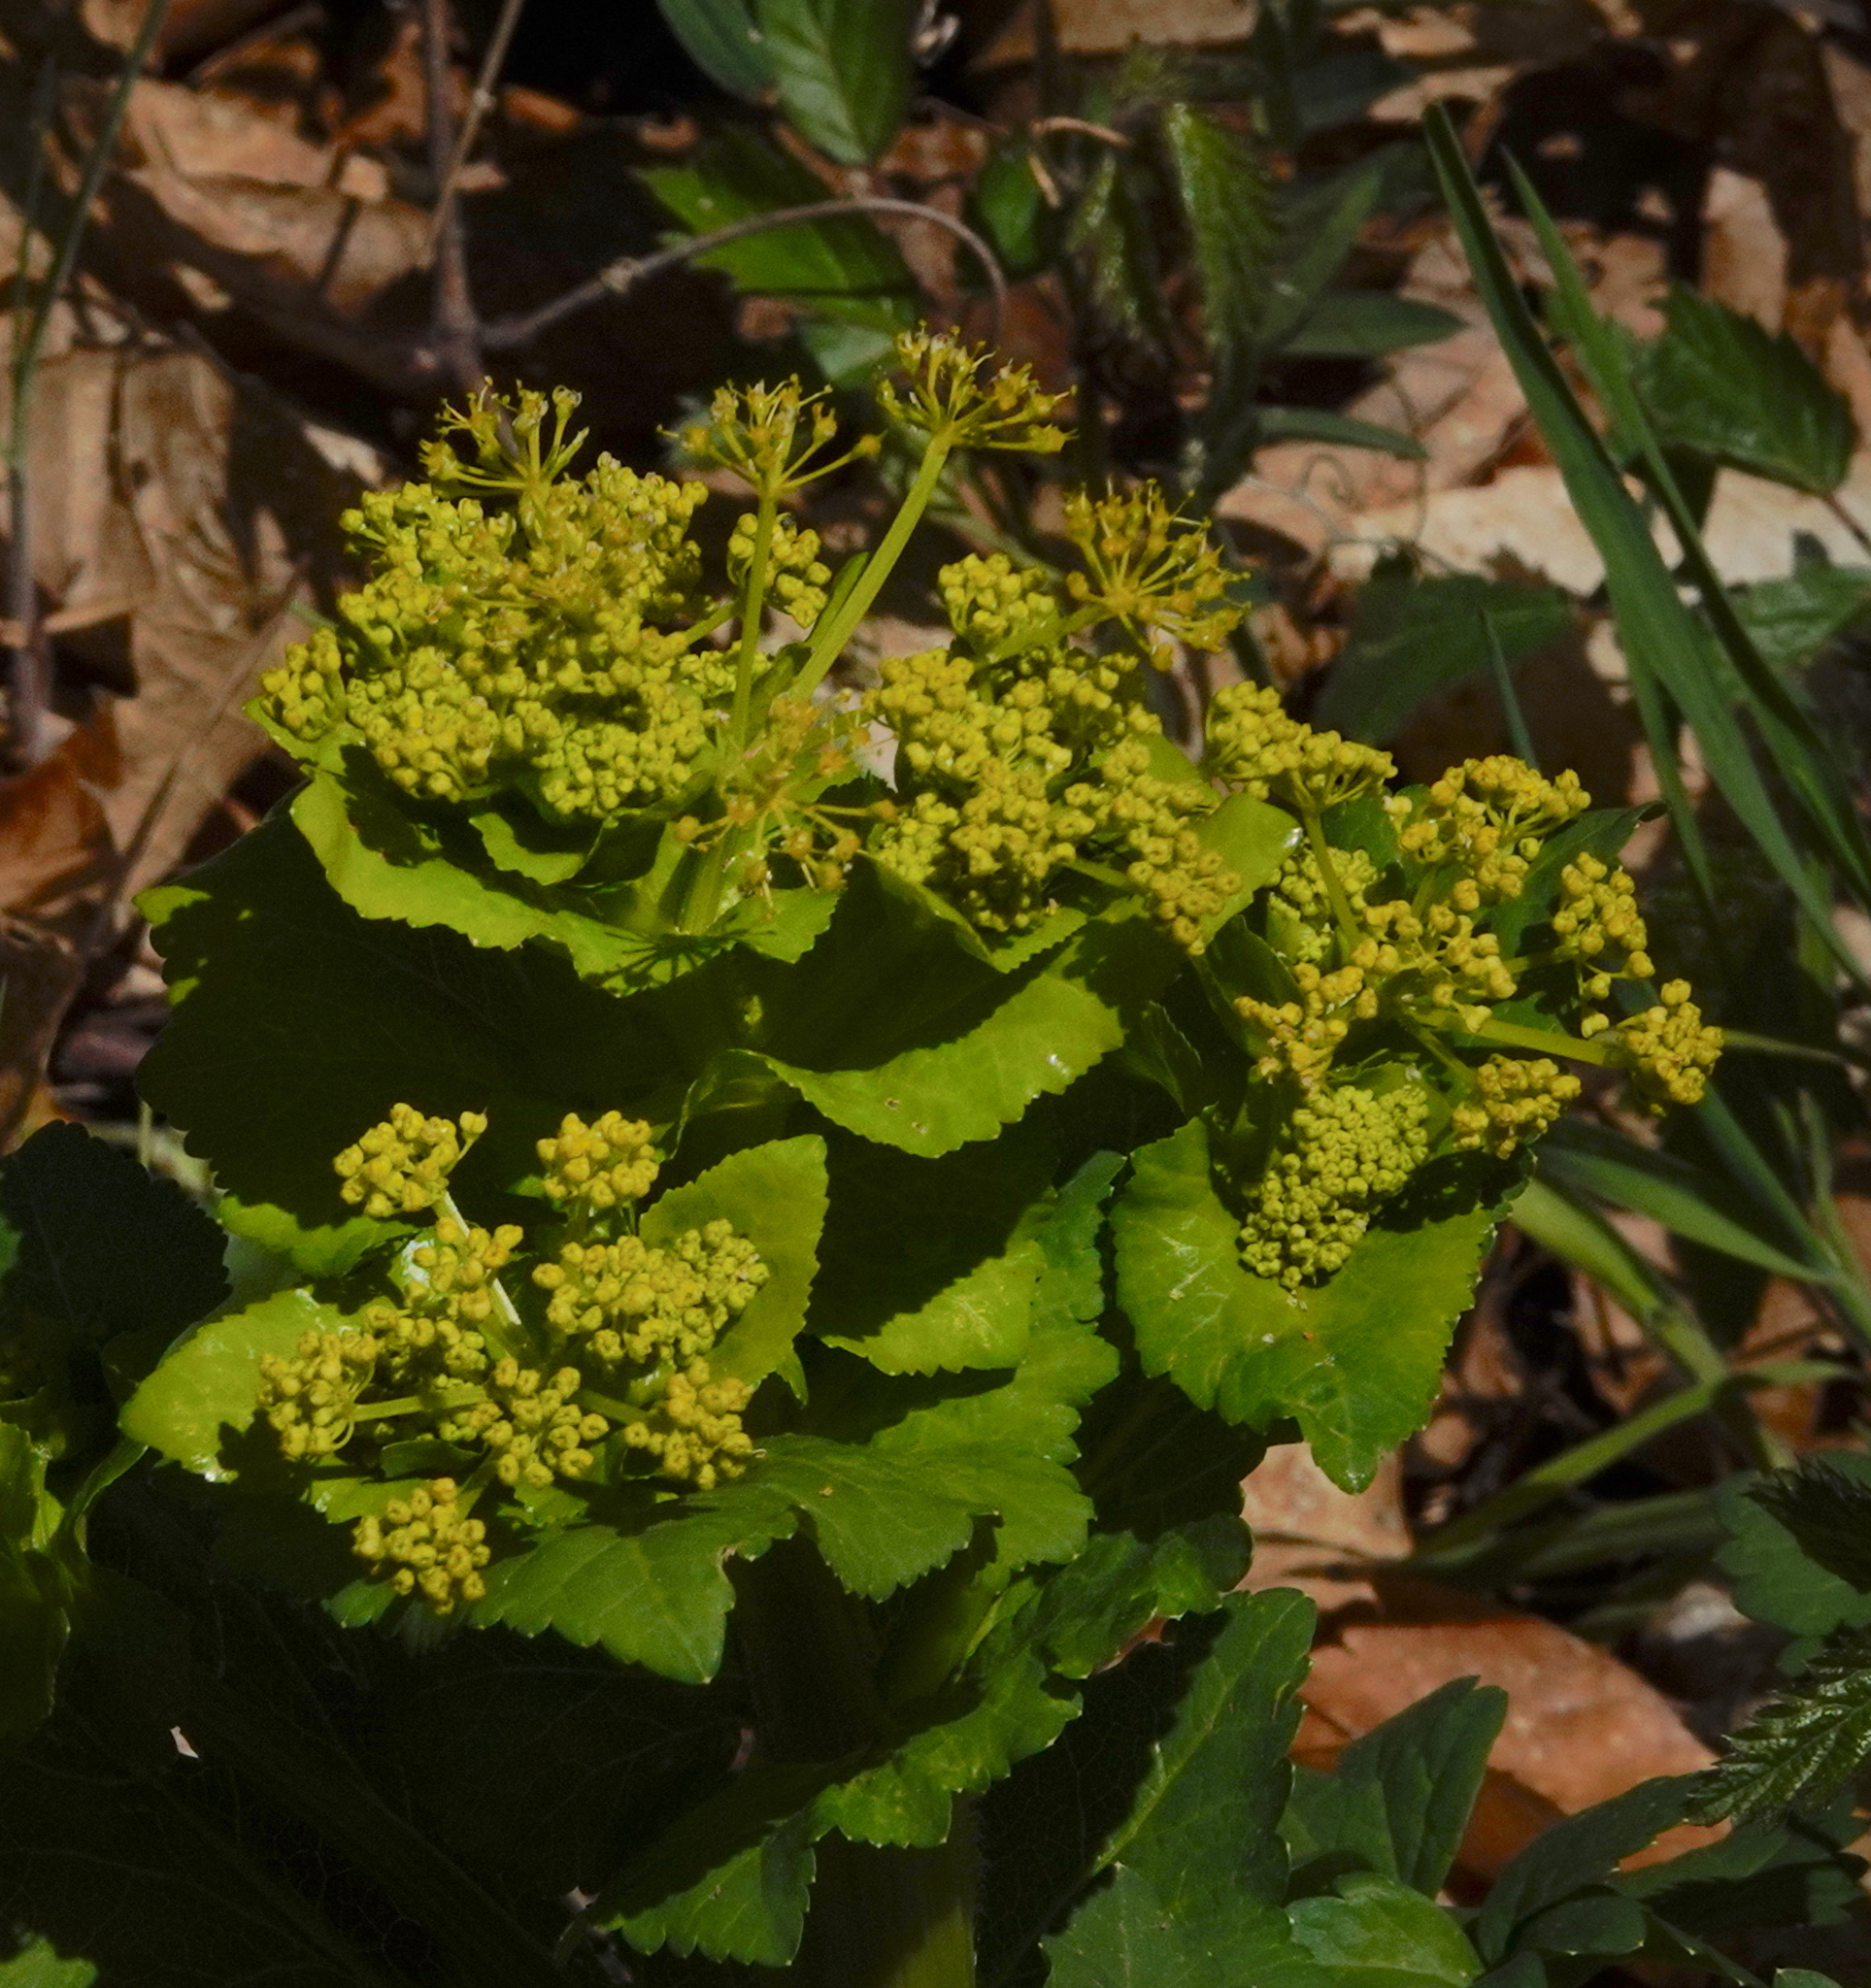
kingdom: Plantae
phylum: Tracheophyta
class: Magnoliopsida
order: Apiales
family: Apiaceae
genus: Smyrnium
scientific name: Smyrnium perfoliatum
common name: Perfoliate alexanders
